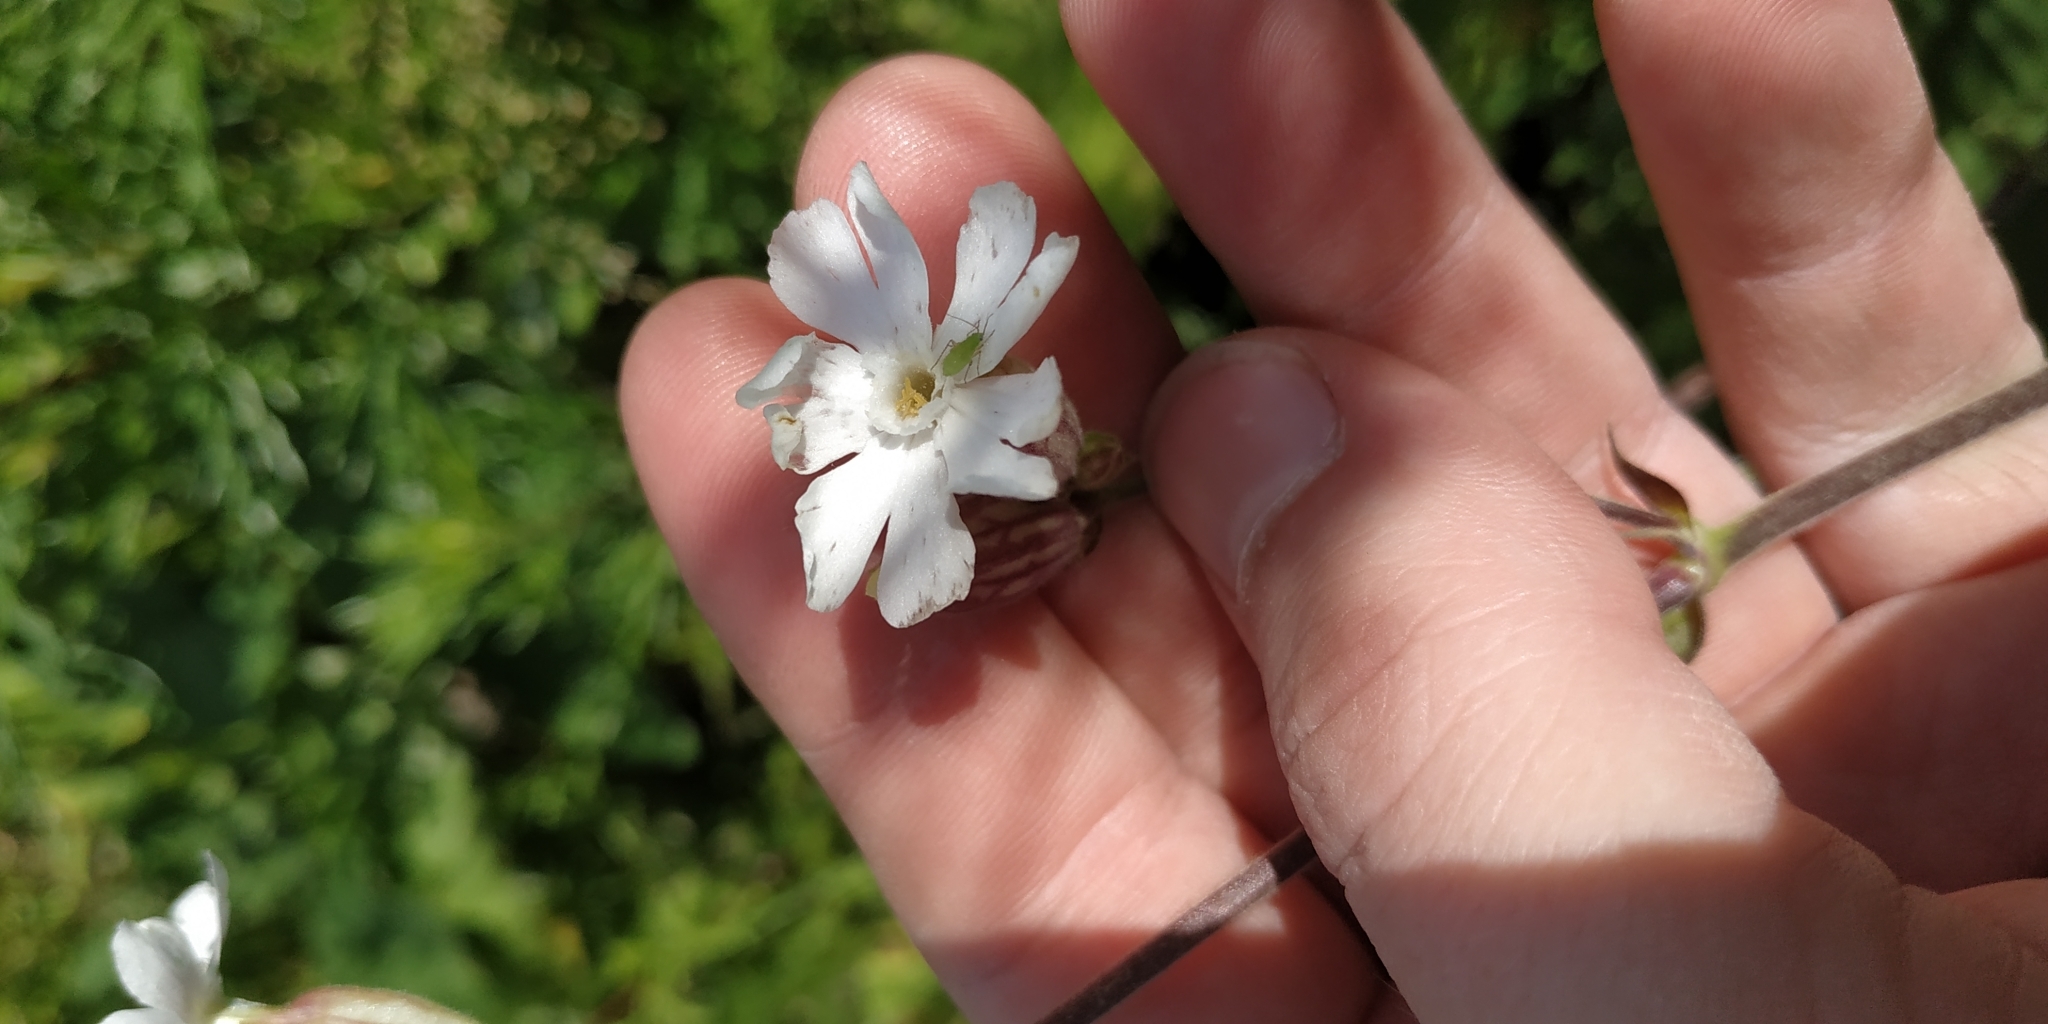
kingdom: Plantae
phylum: Tracheophyta
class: Magnoliopsida
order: Caryophyllales
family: Caryophyllaceae
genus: Silene
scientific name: Silene latifolia
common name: White campion
